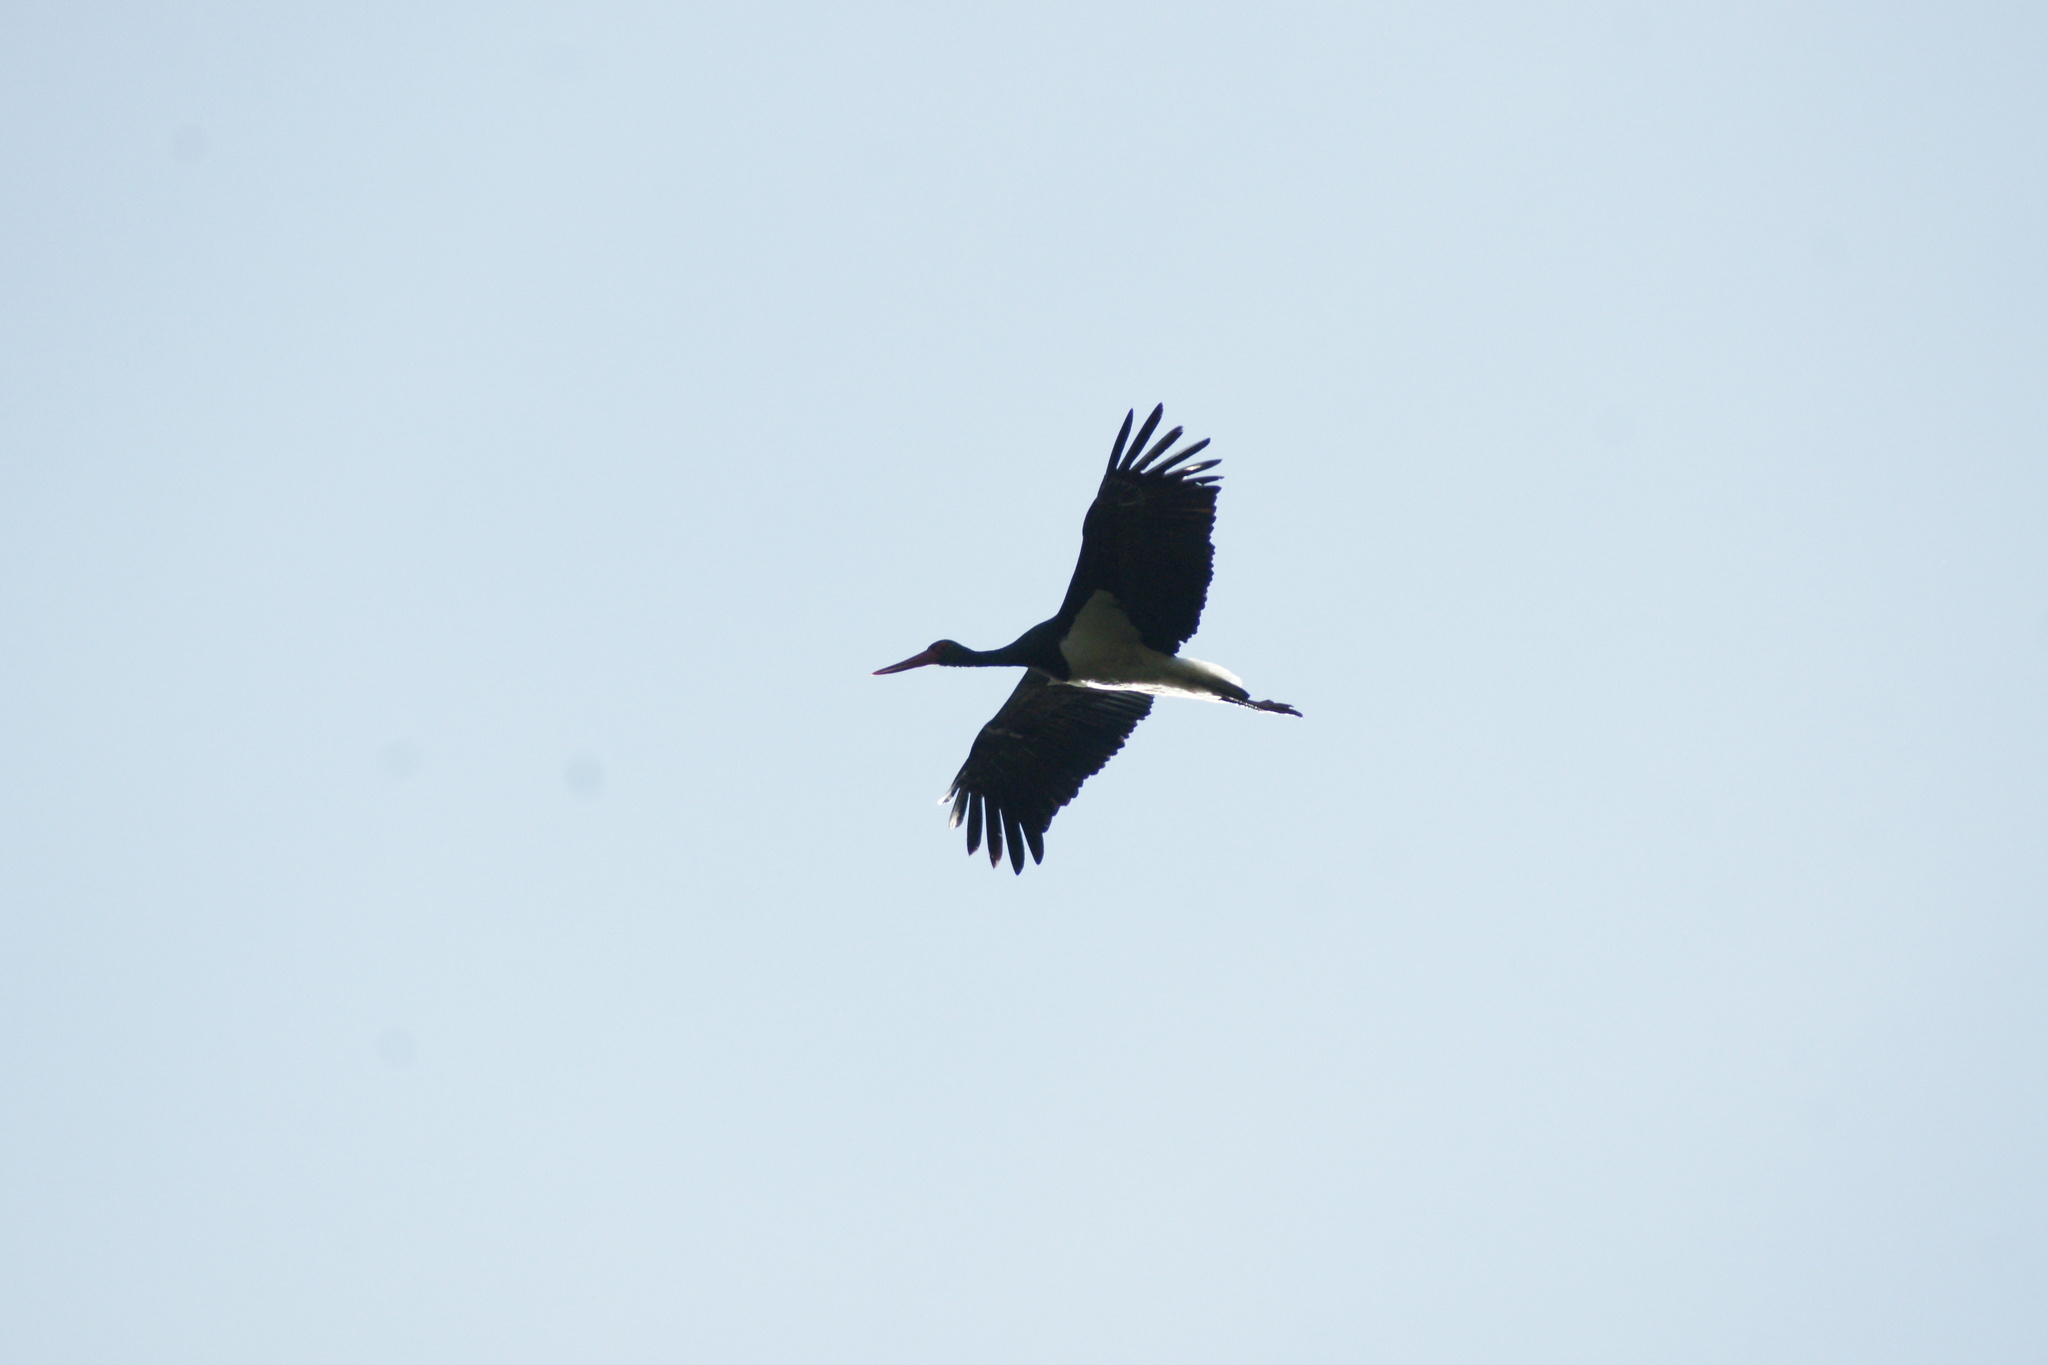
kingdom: Animalia
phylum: Chordata
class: Aves
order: Ciconiiformes
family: Ciconiidae
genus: Ciconia
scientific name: Ciconia nigra
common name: Black stork
